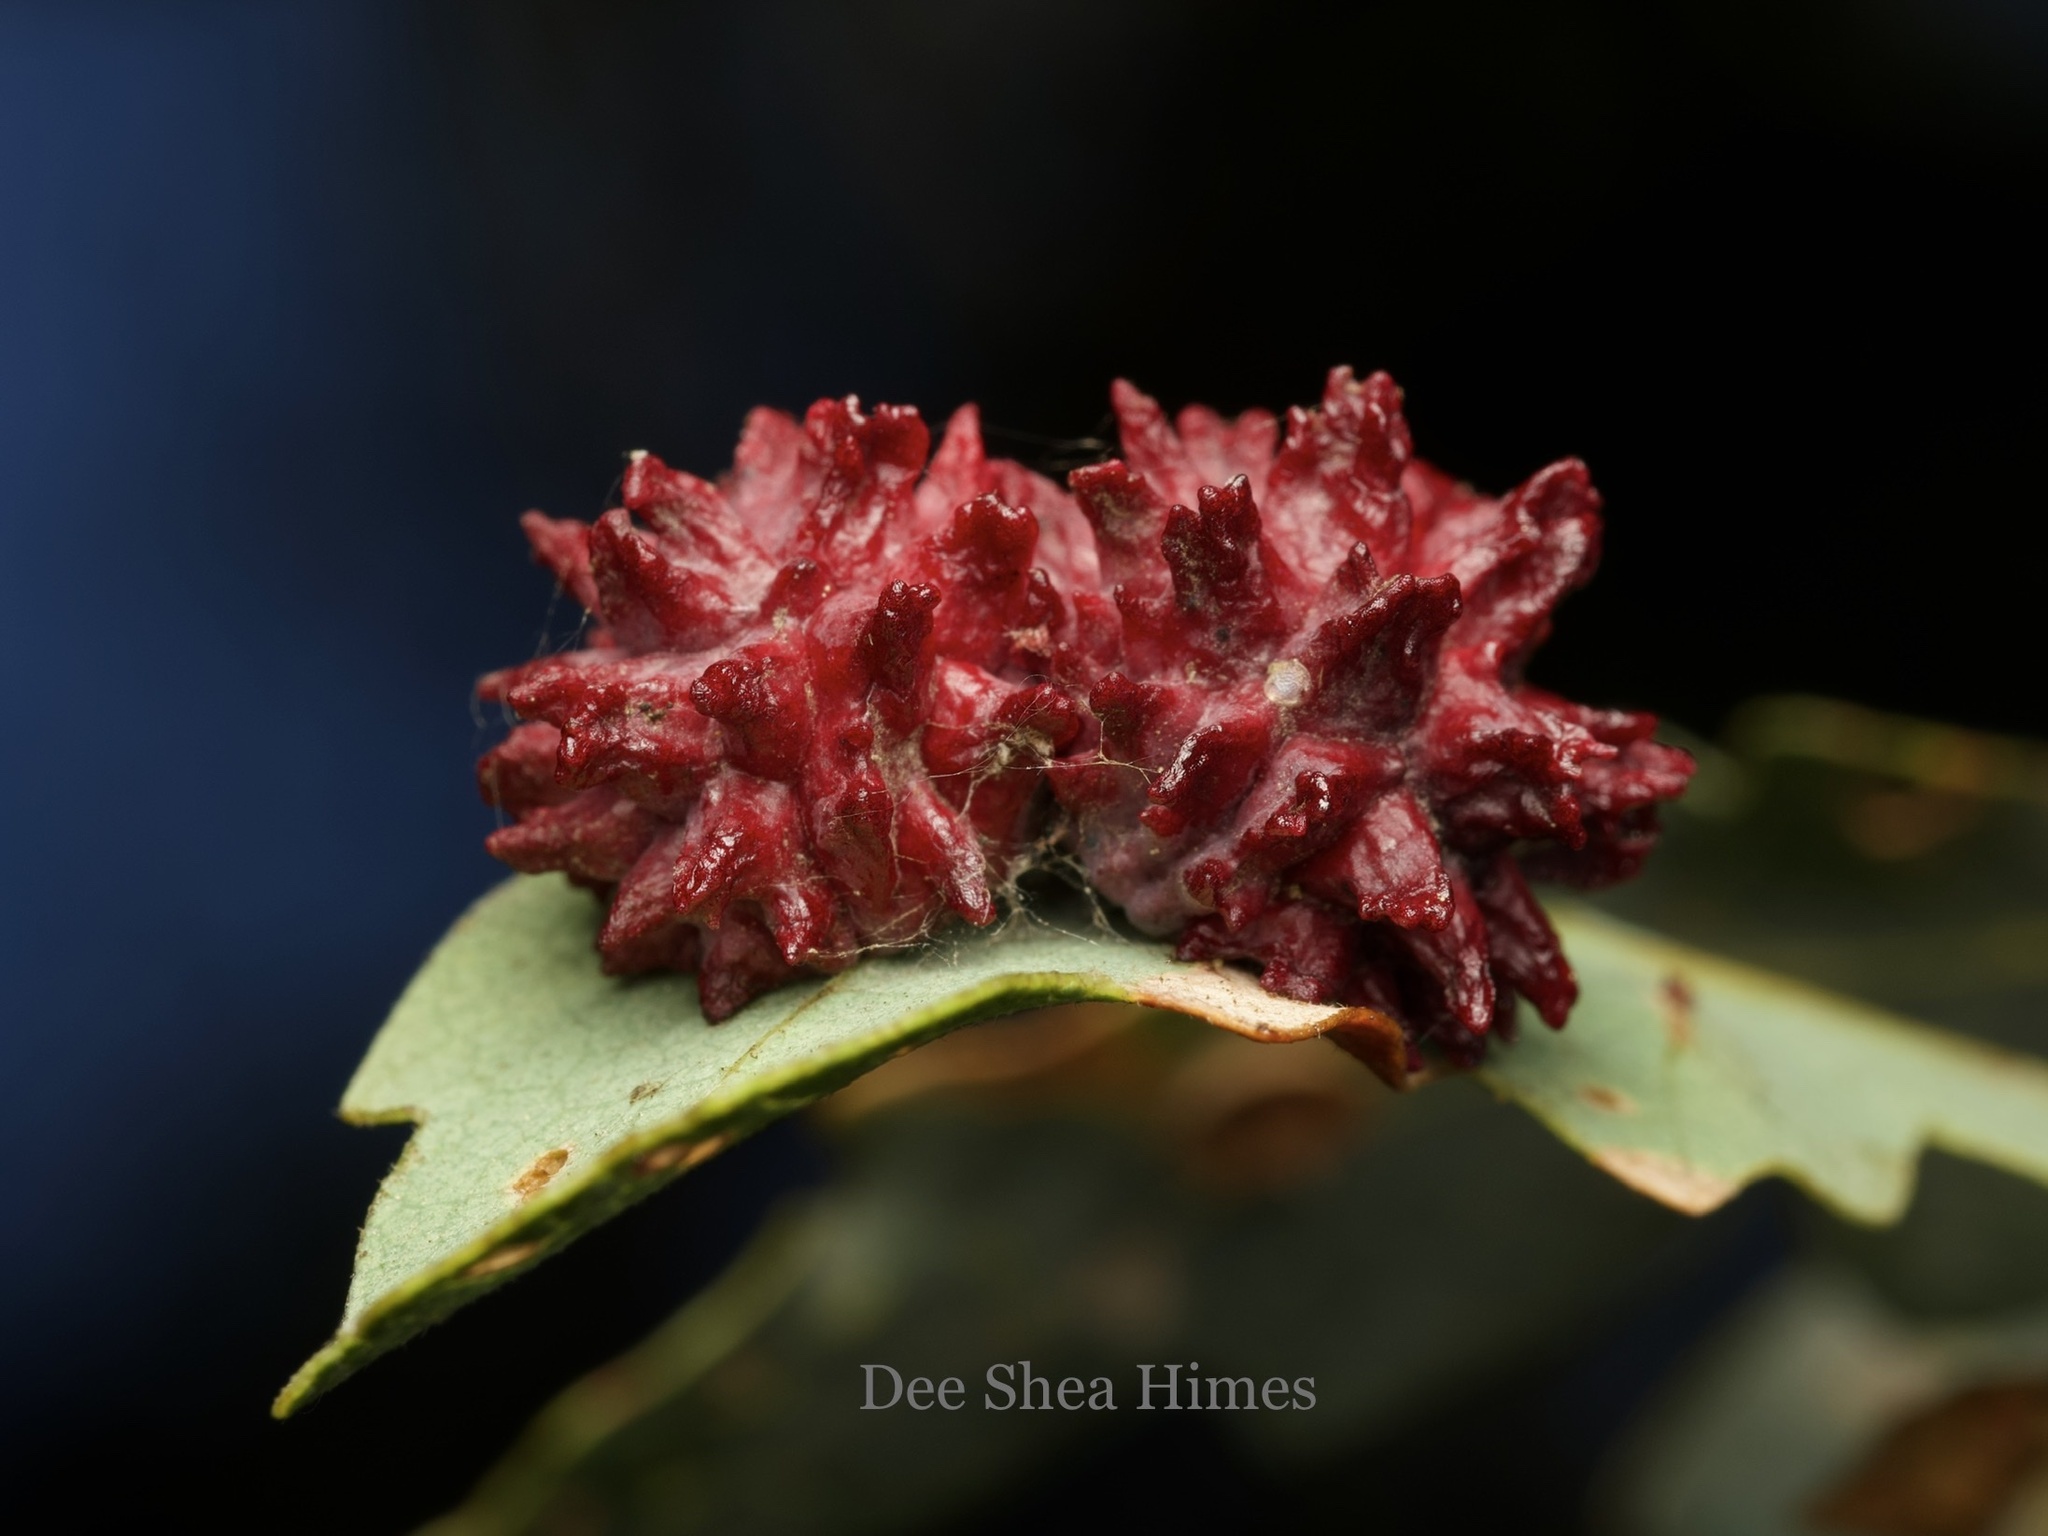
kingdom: Animalia
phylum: Arthropoda
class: Insecta
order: Hymenoptera
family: Cynipidae
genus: Cynips
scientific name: Cynips
